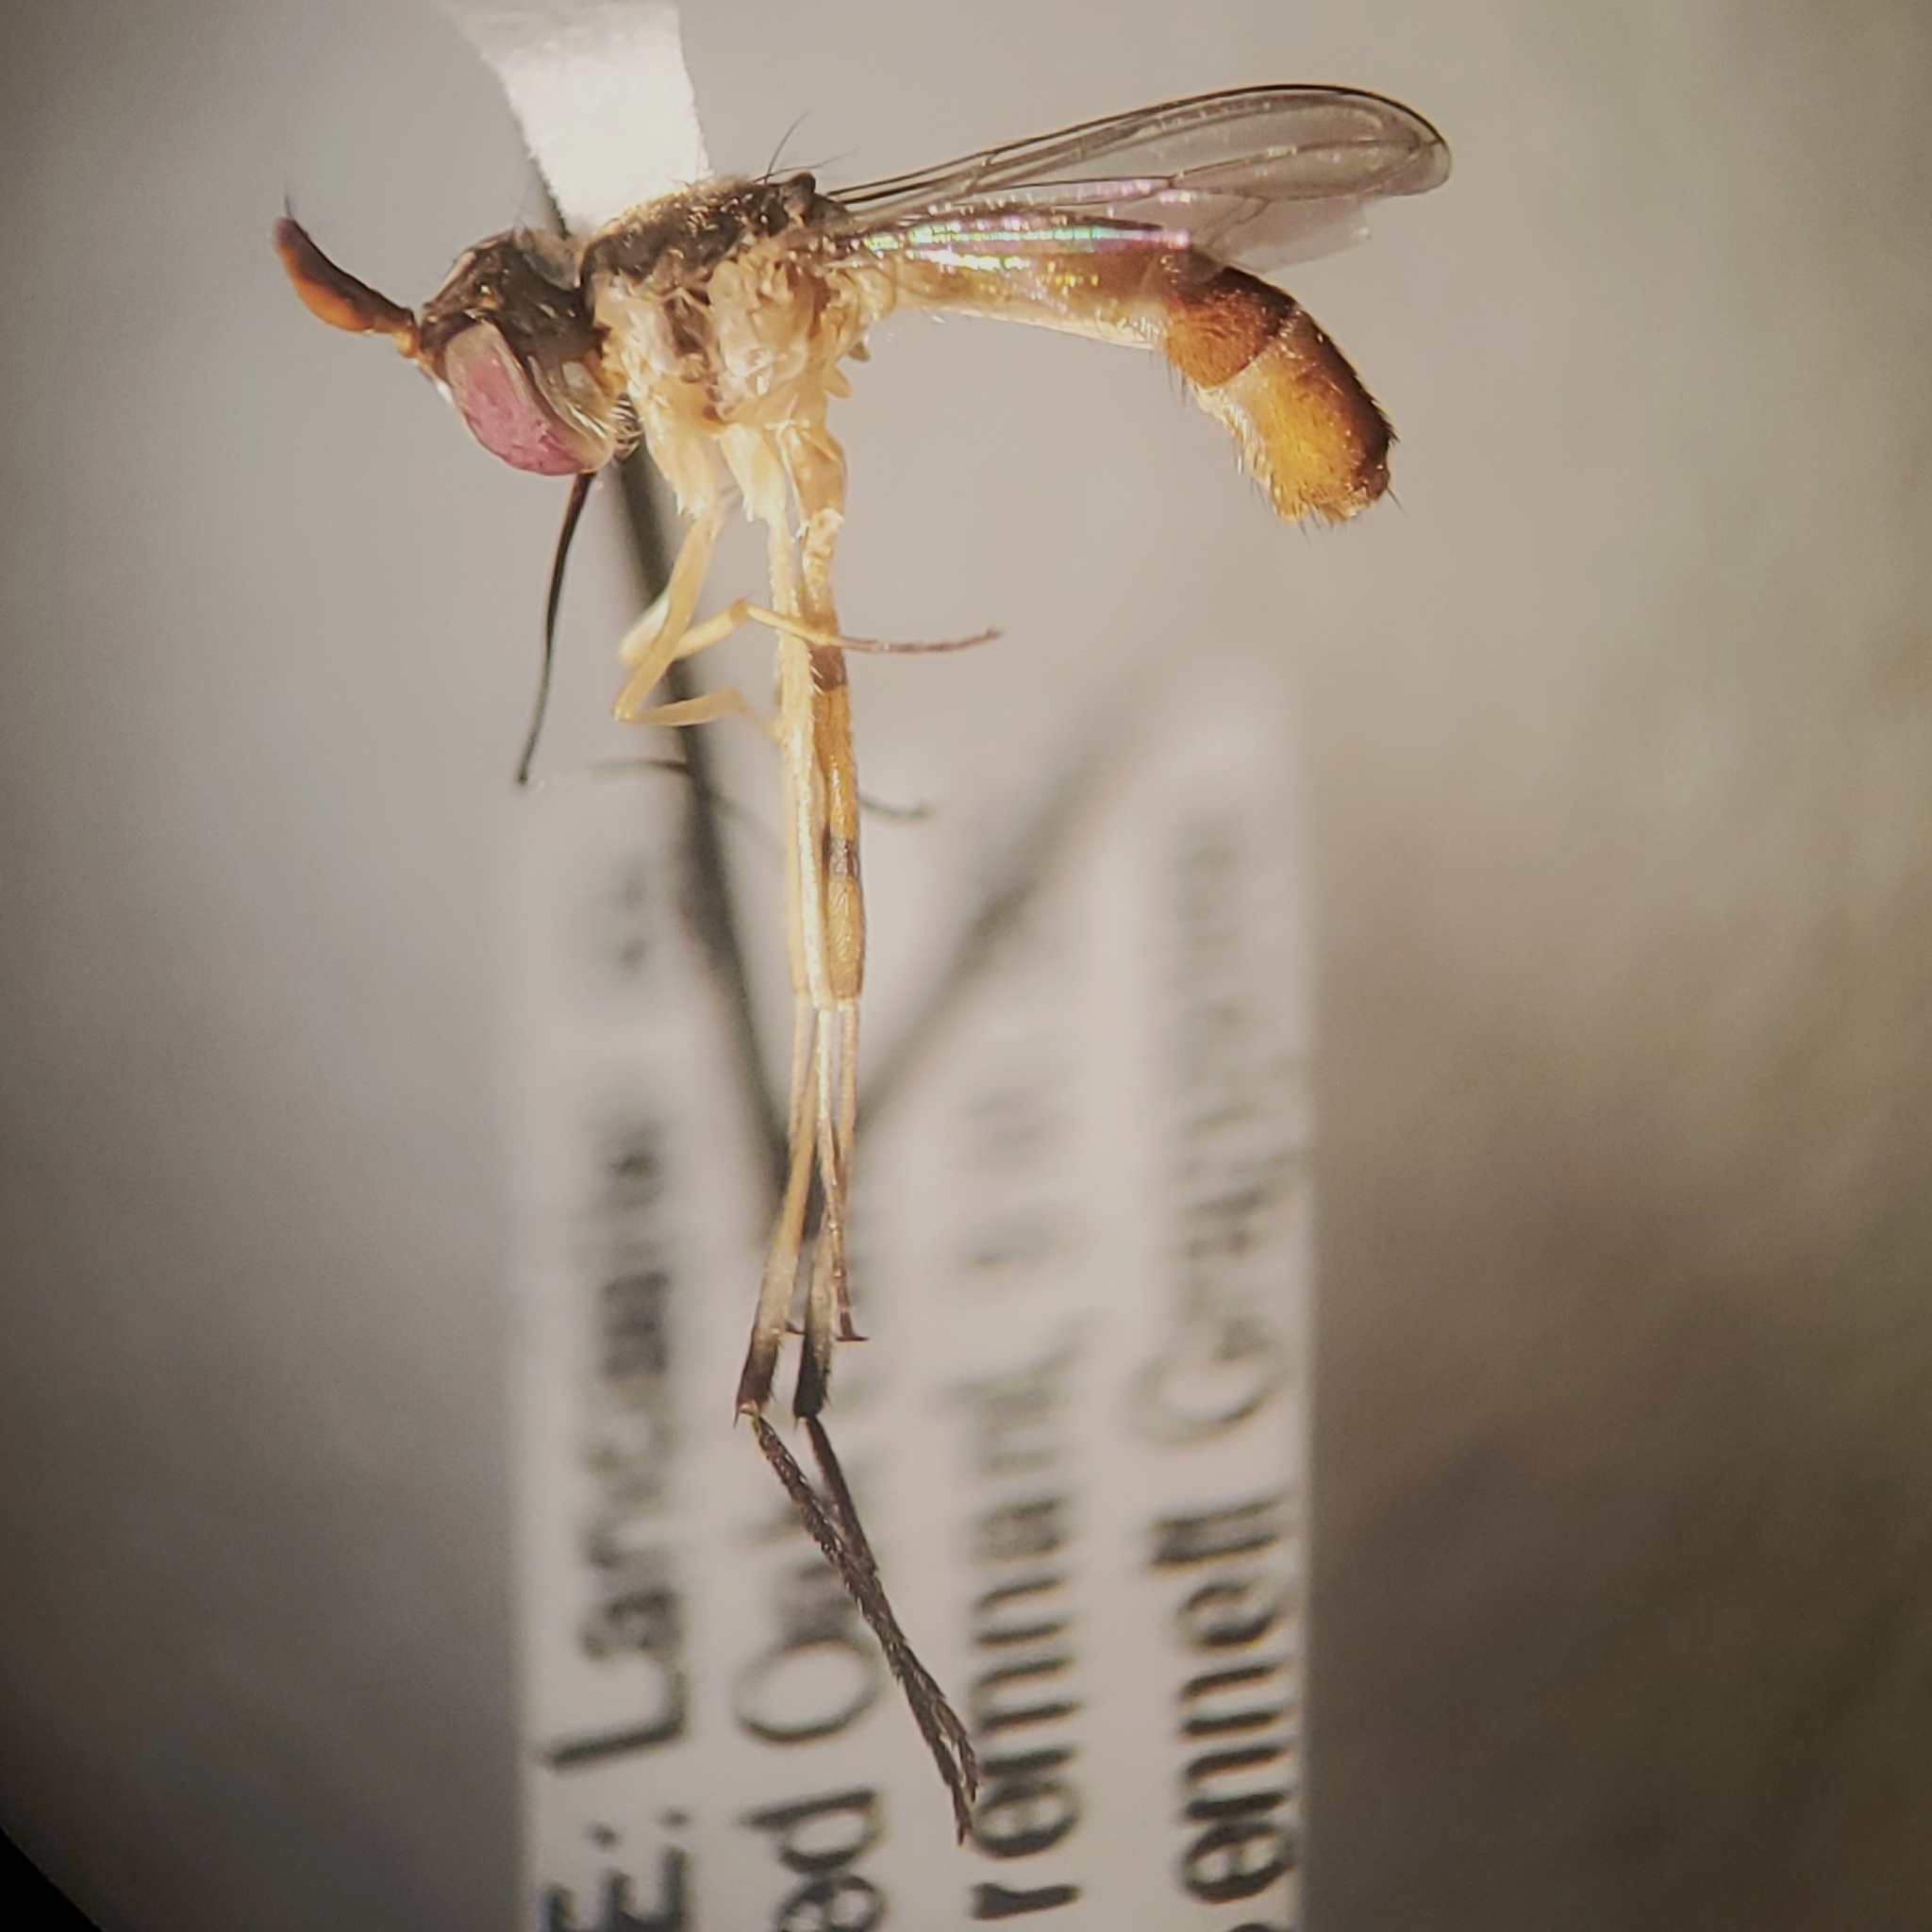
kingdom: Animalia
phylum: Arthropoda
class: Insecta
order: Diptera
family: Conopidae
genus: Stylogaster
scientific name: Stylogaster neglecta
